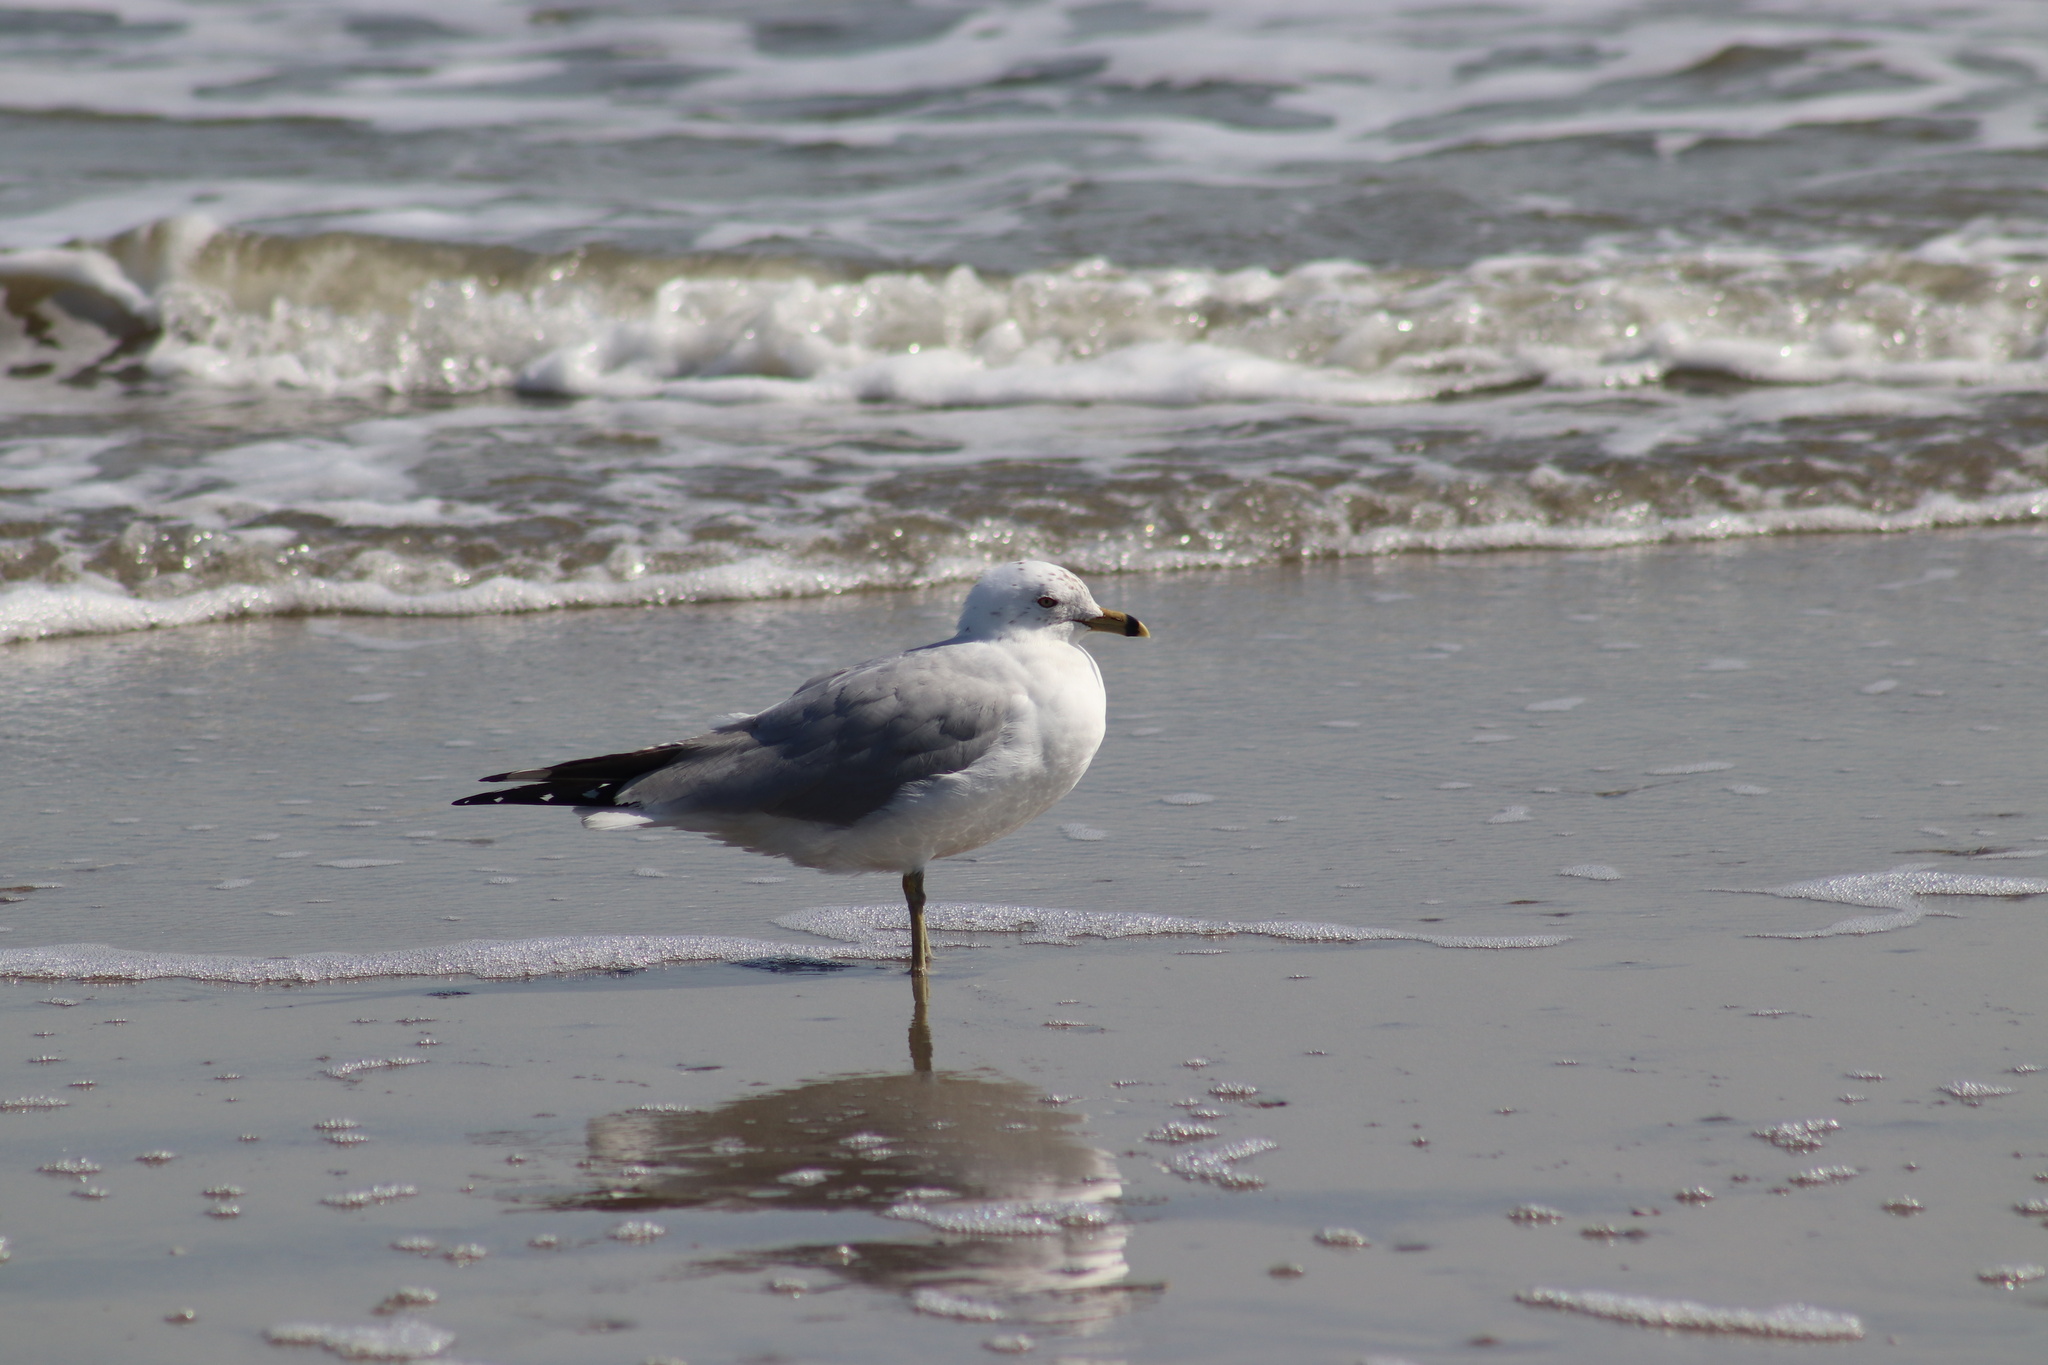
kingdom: Animalia
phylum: Chordata
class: Aves
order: Charadriiformes
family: Laridae
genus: Larus
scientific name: Larus delawarensis
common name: Ring-billed gull
